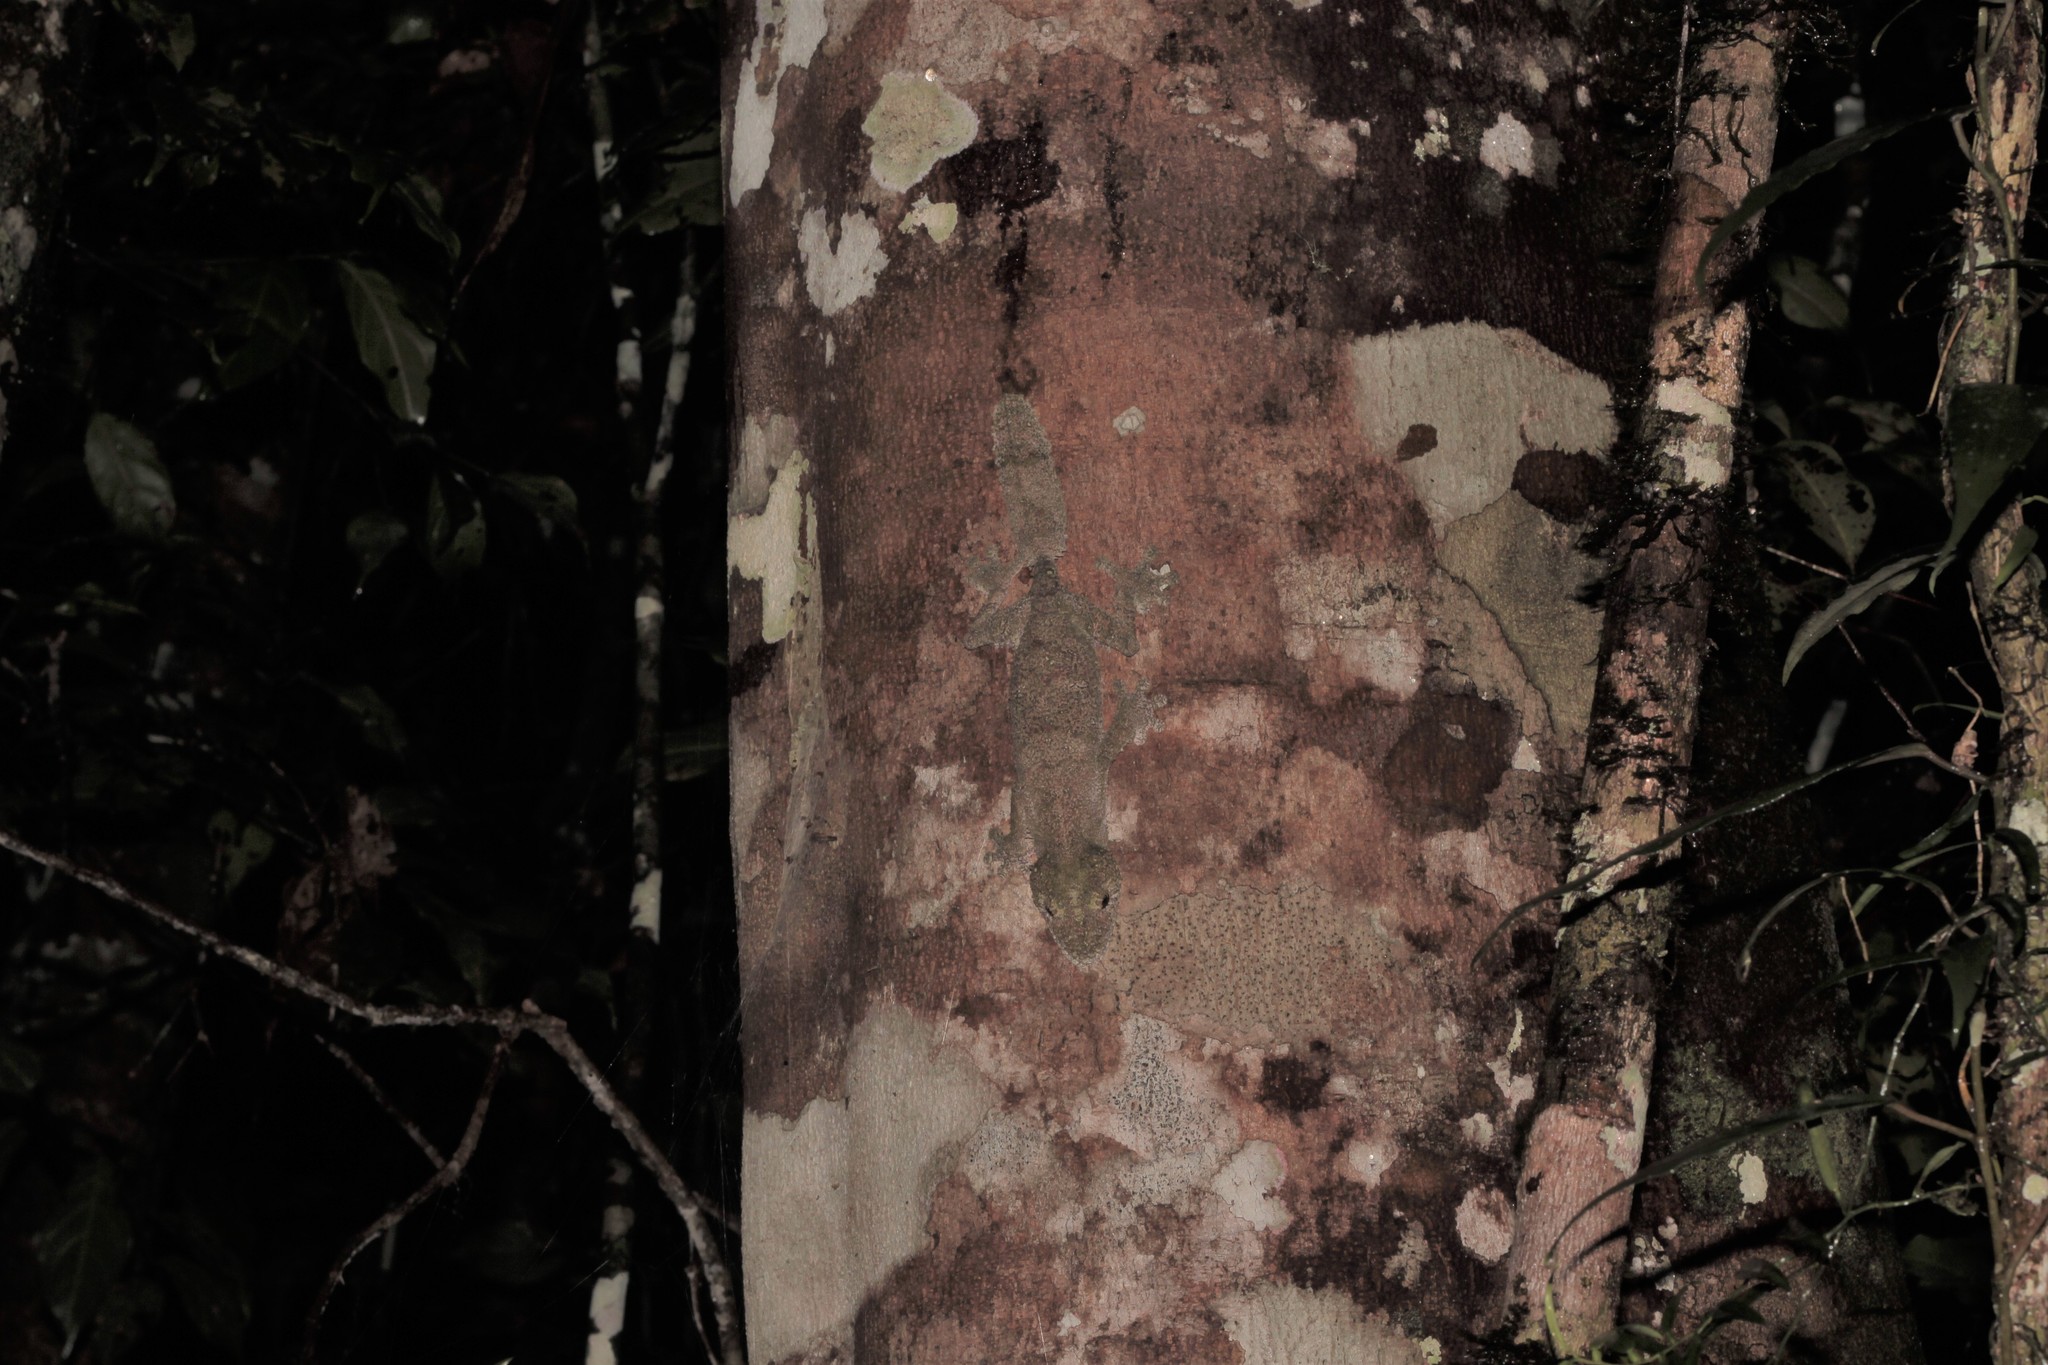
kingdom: Animalia
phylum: Chordata
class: Squamata
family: Gekkonidae
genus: Uroplatus
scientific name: Uroplatus sikorae
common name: Southern flat-tail gecko
